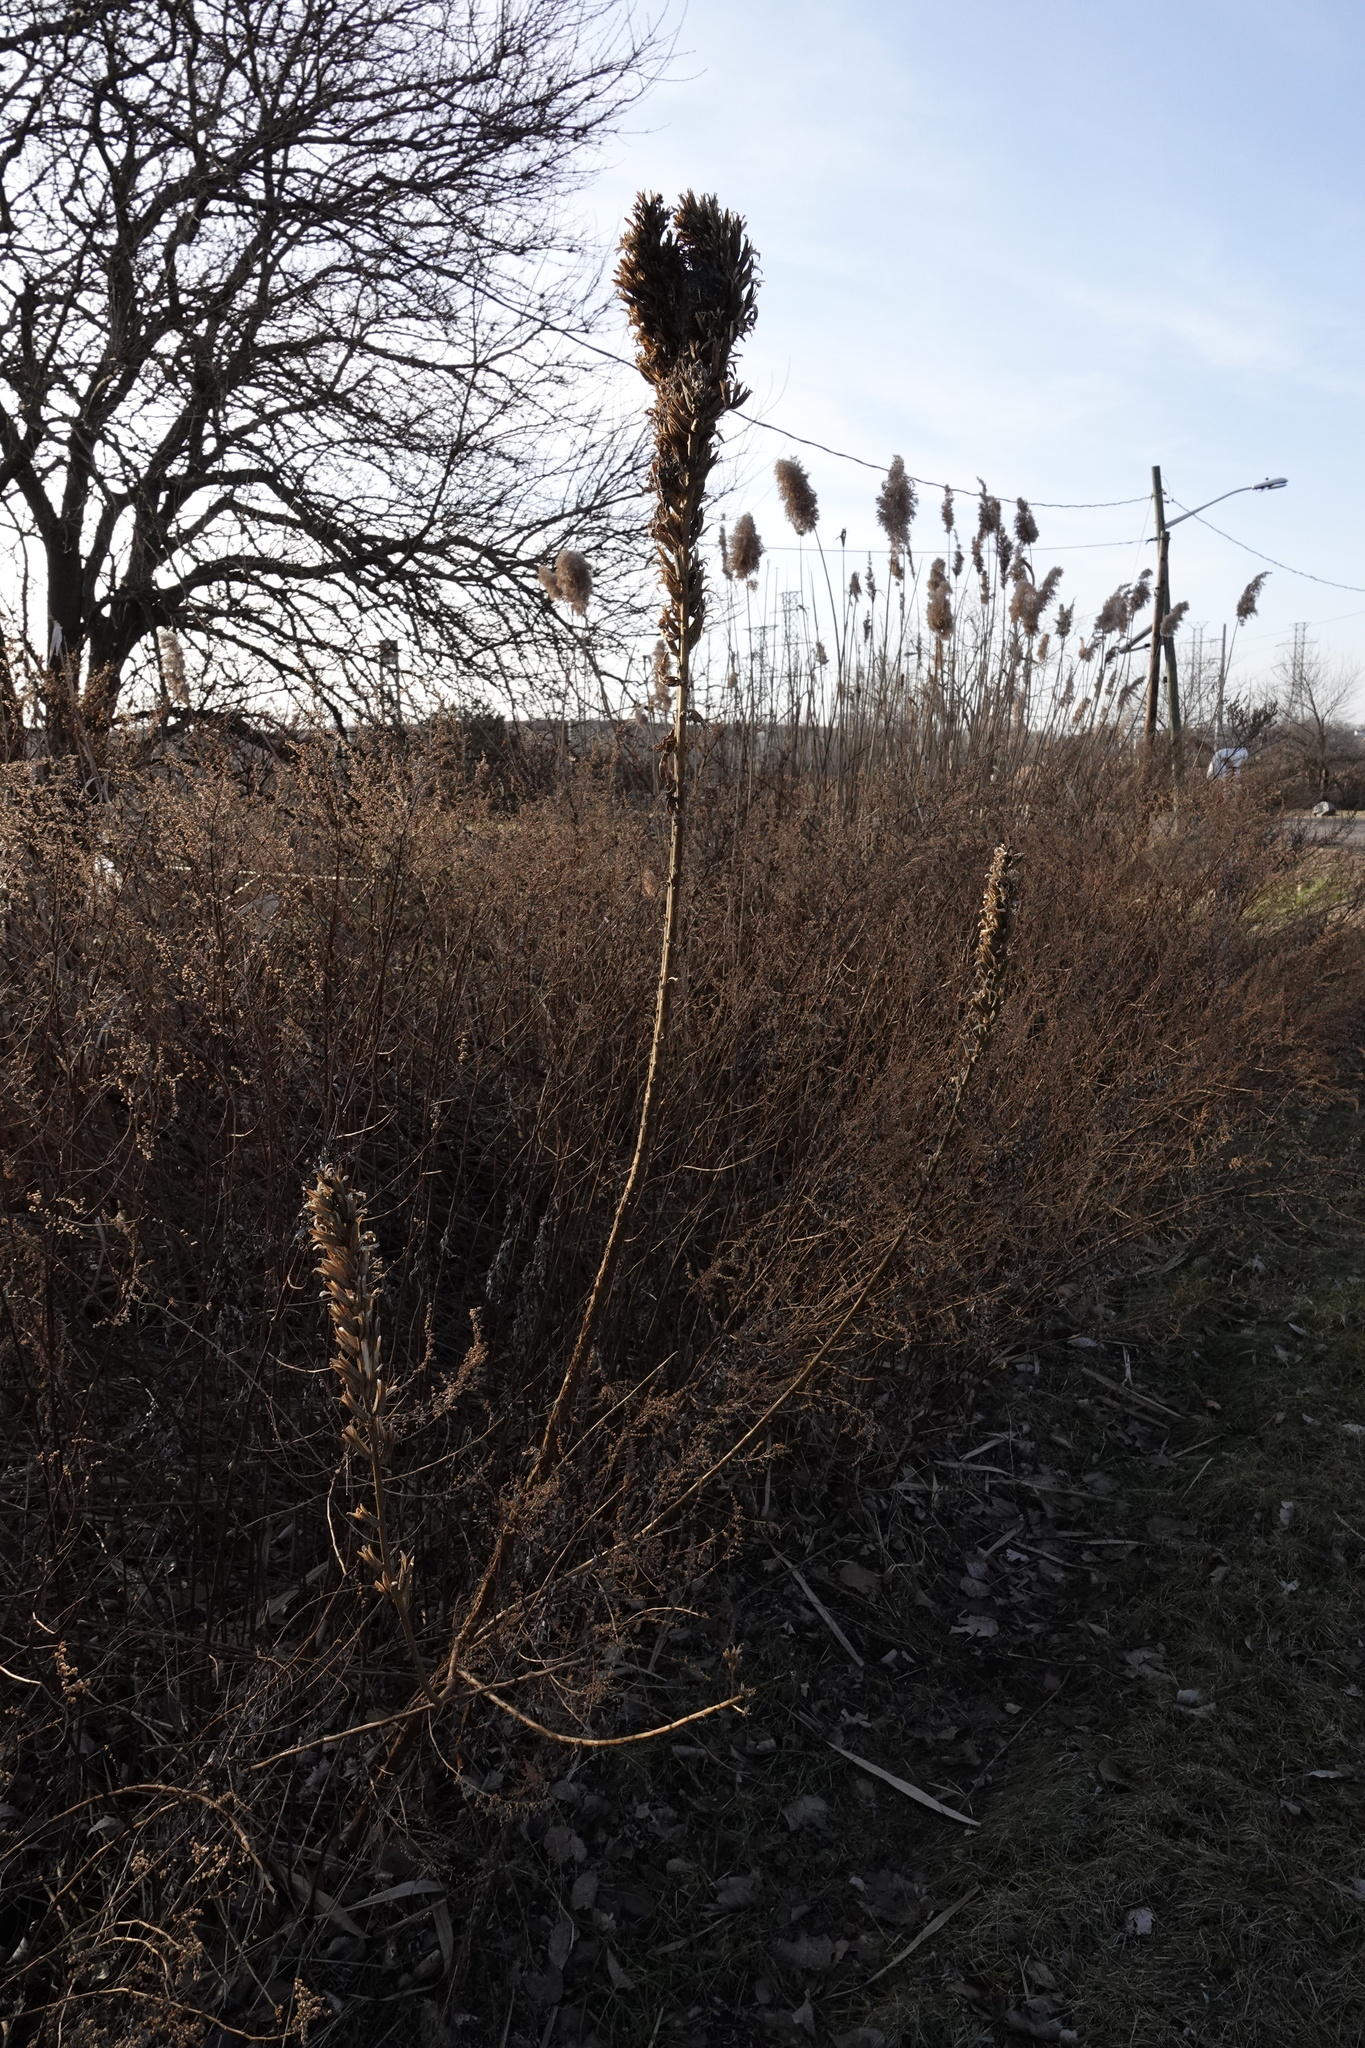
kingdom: Plantae
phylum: Tracheophyta
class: Magnoliopsida
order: Myrtales
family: Onagraceae
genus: Oenothera
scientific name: Oenothera biennis
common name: Common evening-primrose
